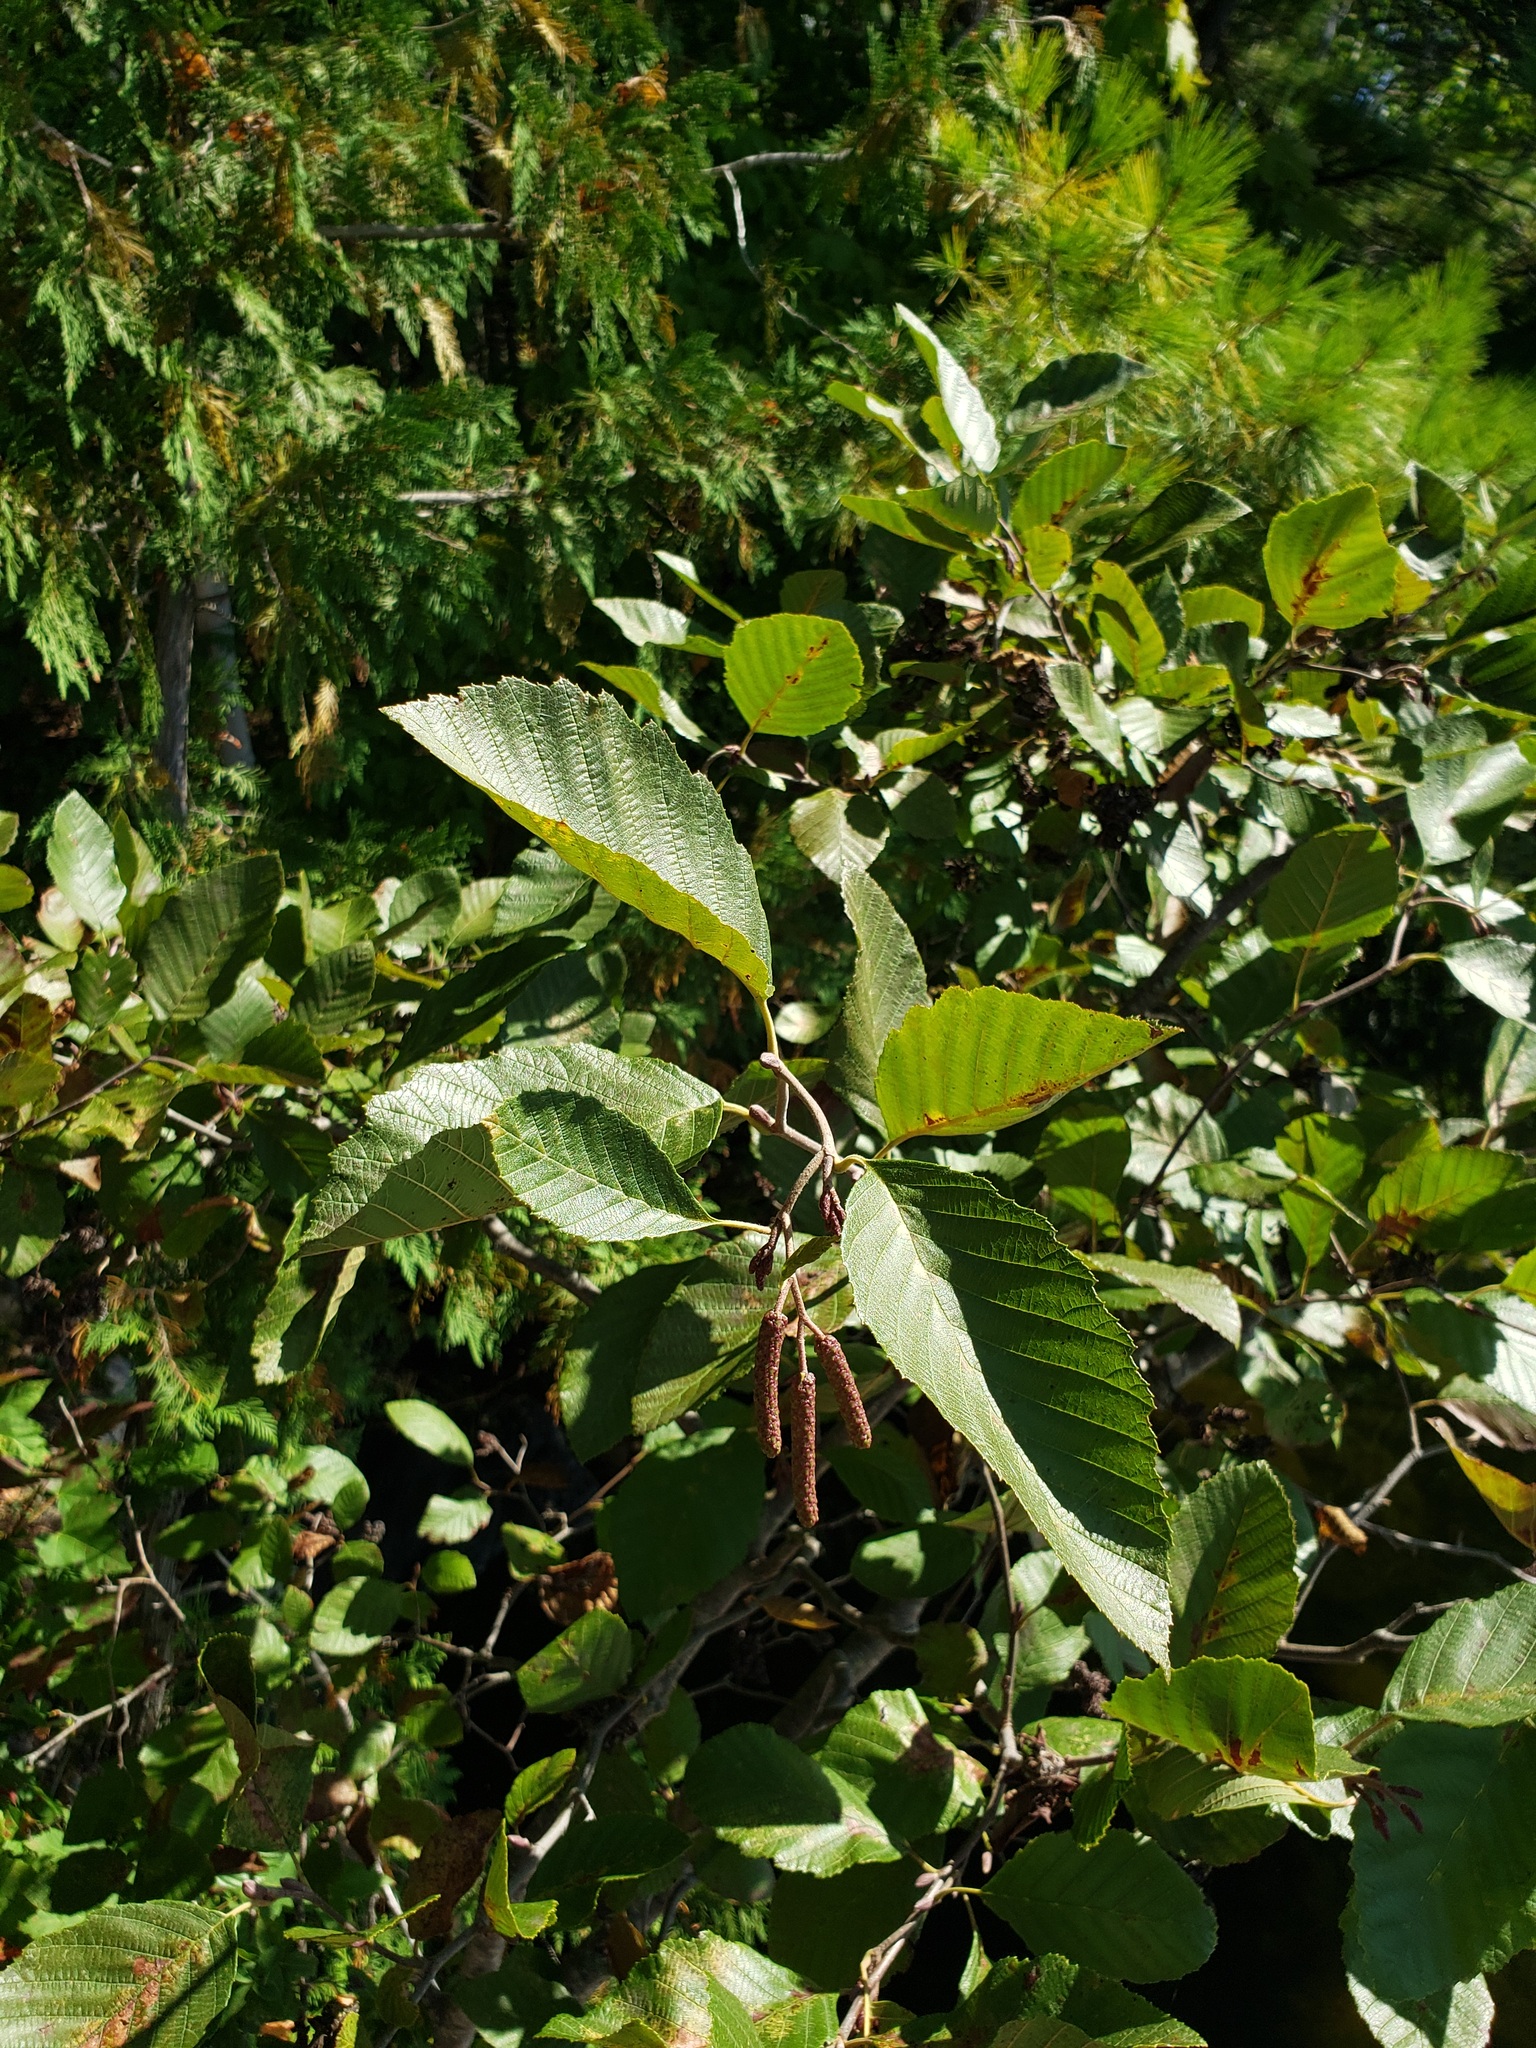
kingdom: Plantae
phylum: Tracheophyta
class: Magnoliopsida
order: Fagales
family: Betulaceae
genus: Alnus
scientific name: Alnus incana
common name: Grey alder
